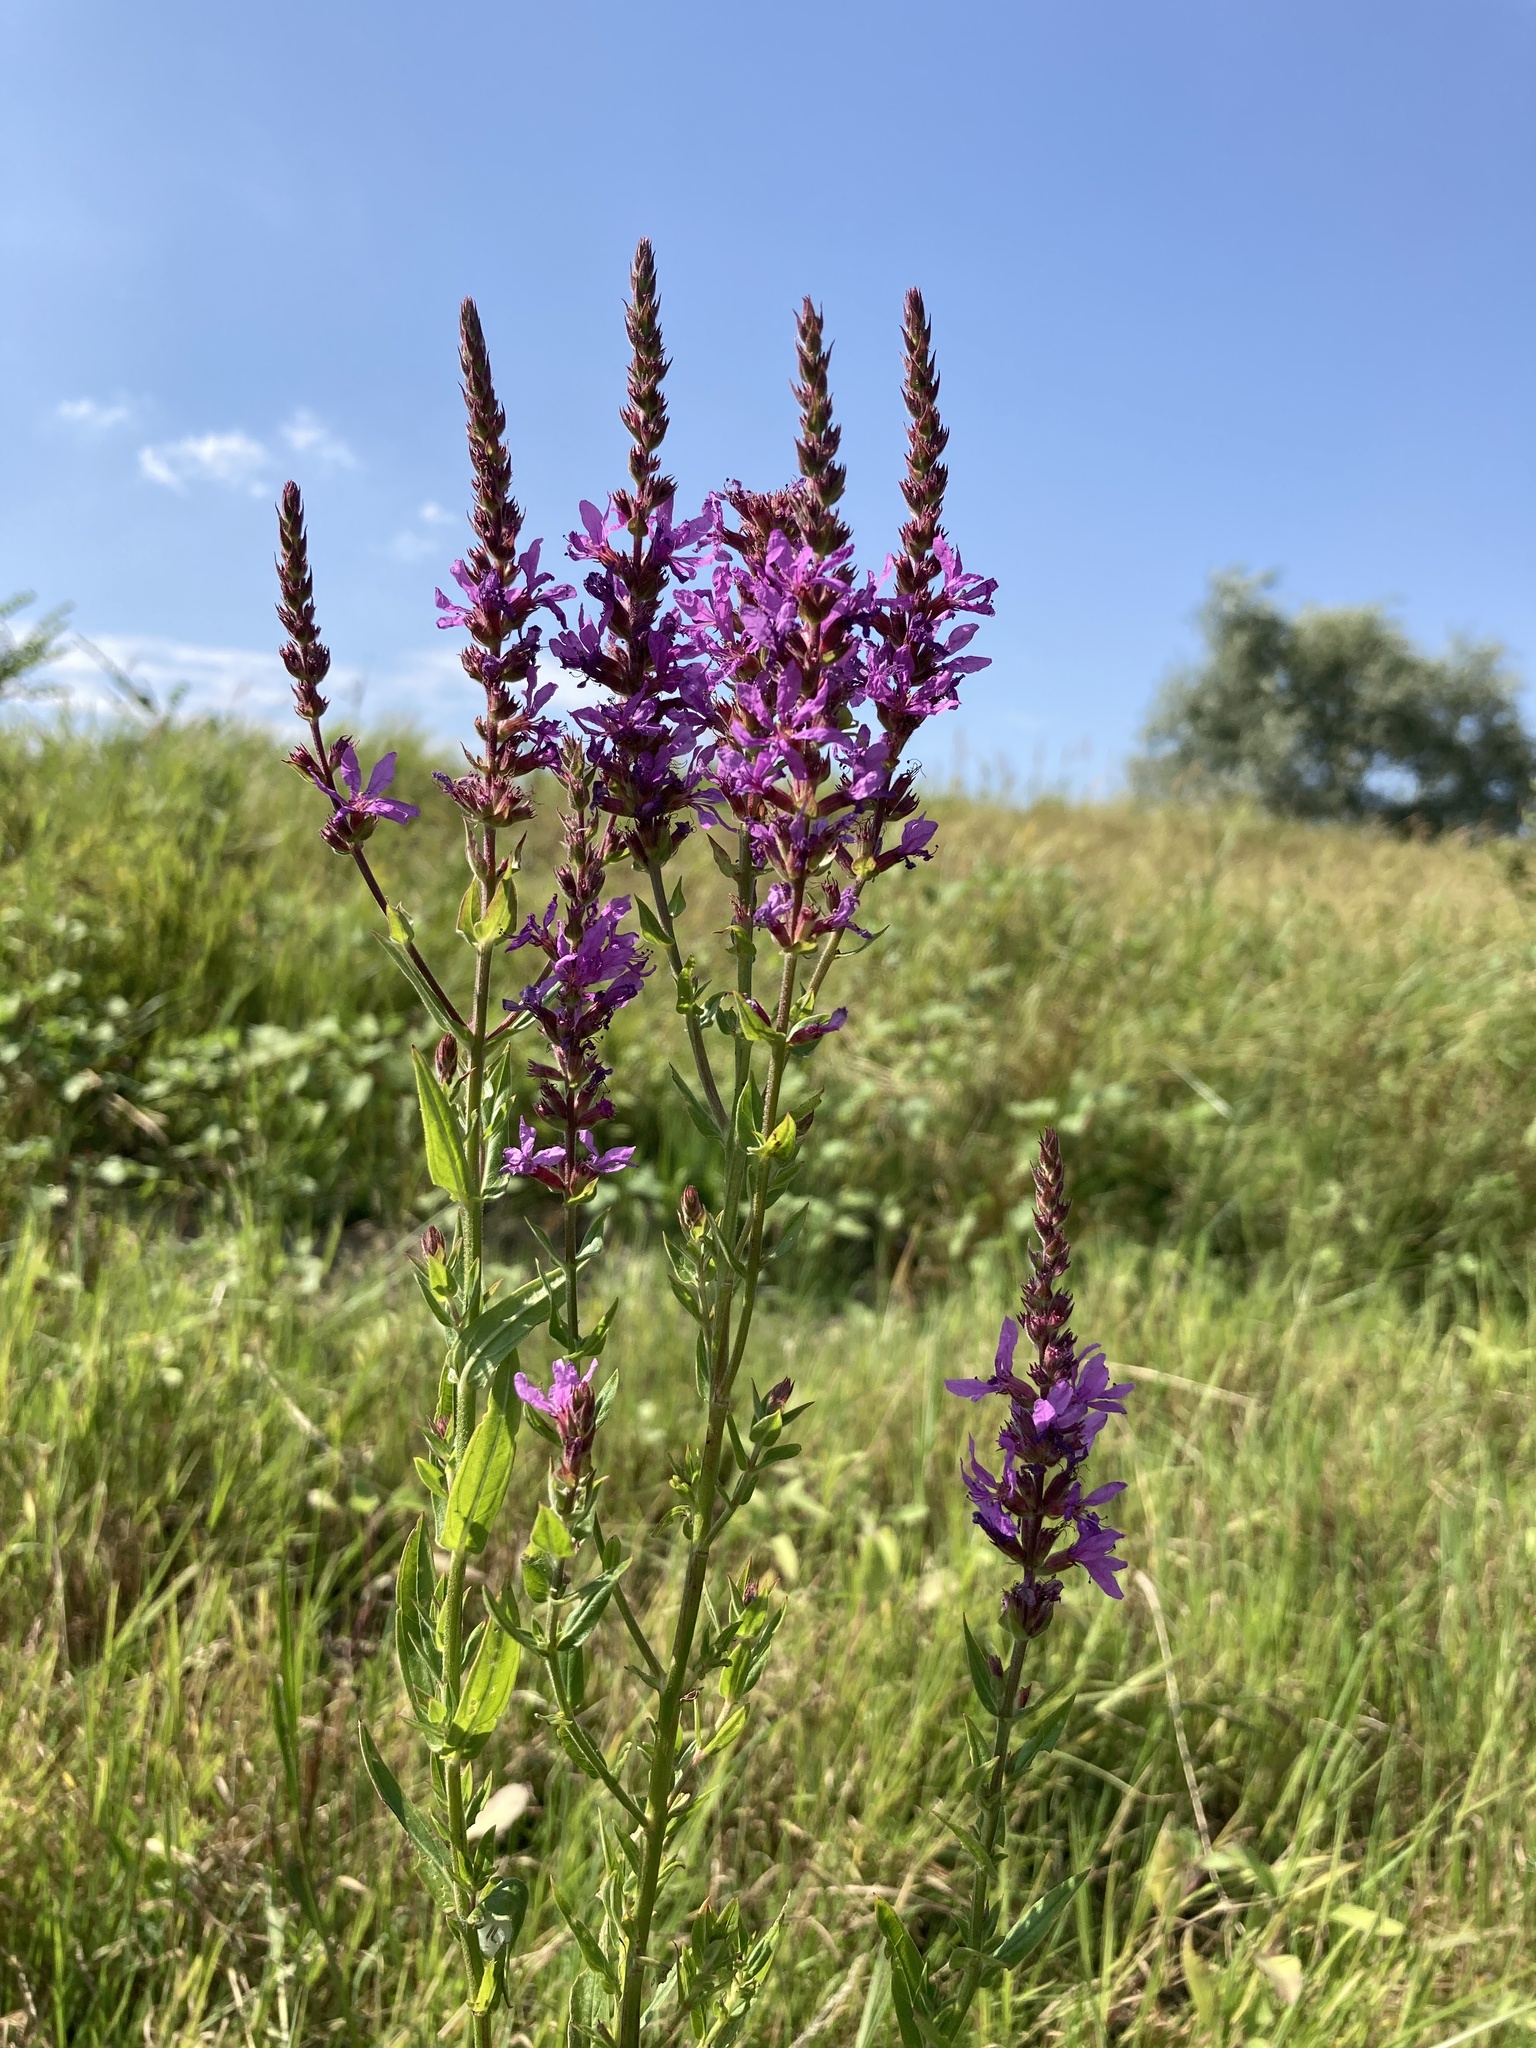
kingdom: Plantae
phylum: Tracheophyta
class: Magnoliopsida
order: Myrtales
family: Lythraceae
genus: Lythrum
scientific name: Lythrum salicaria
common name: Purple loosestrife
